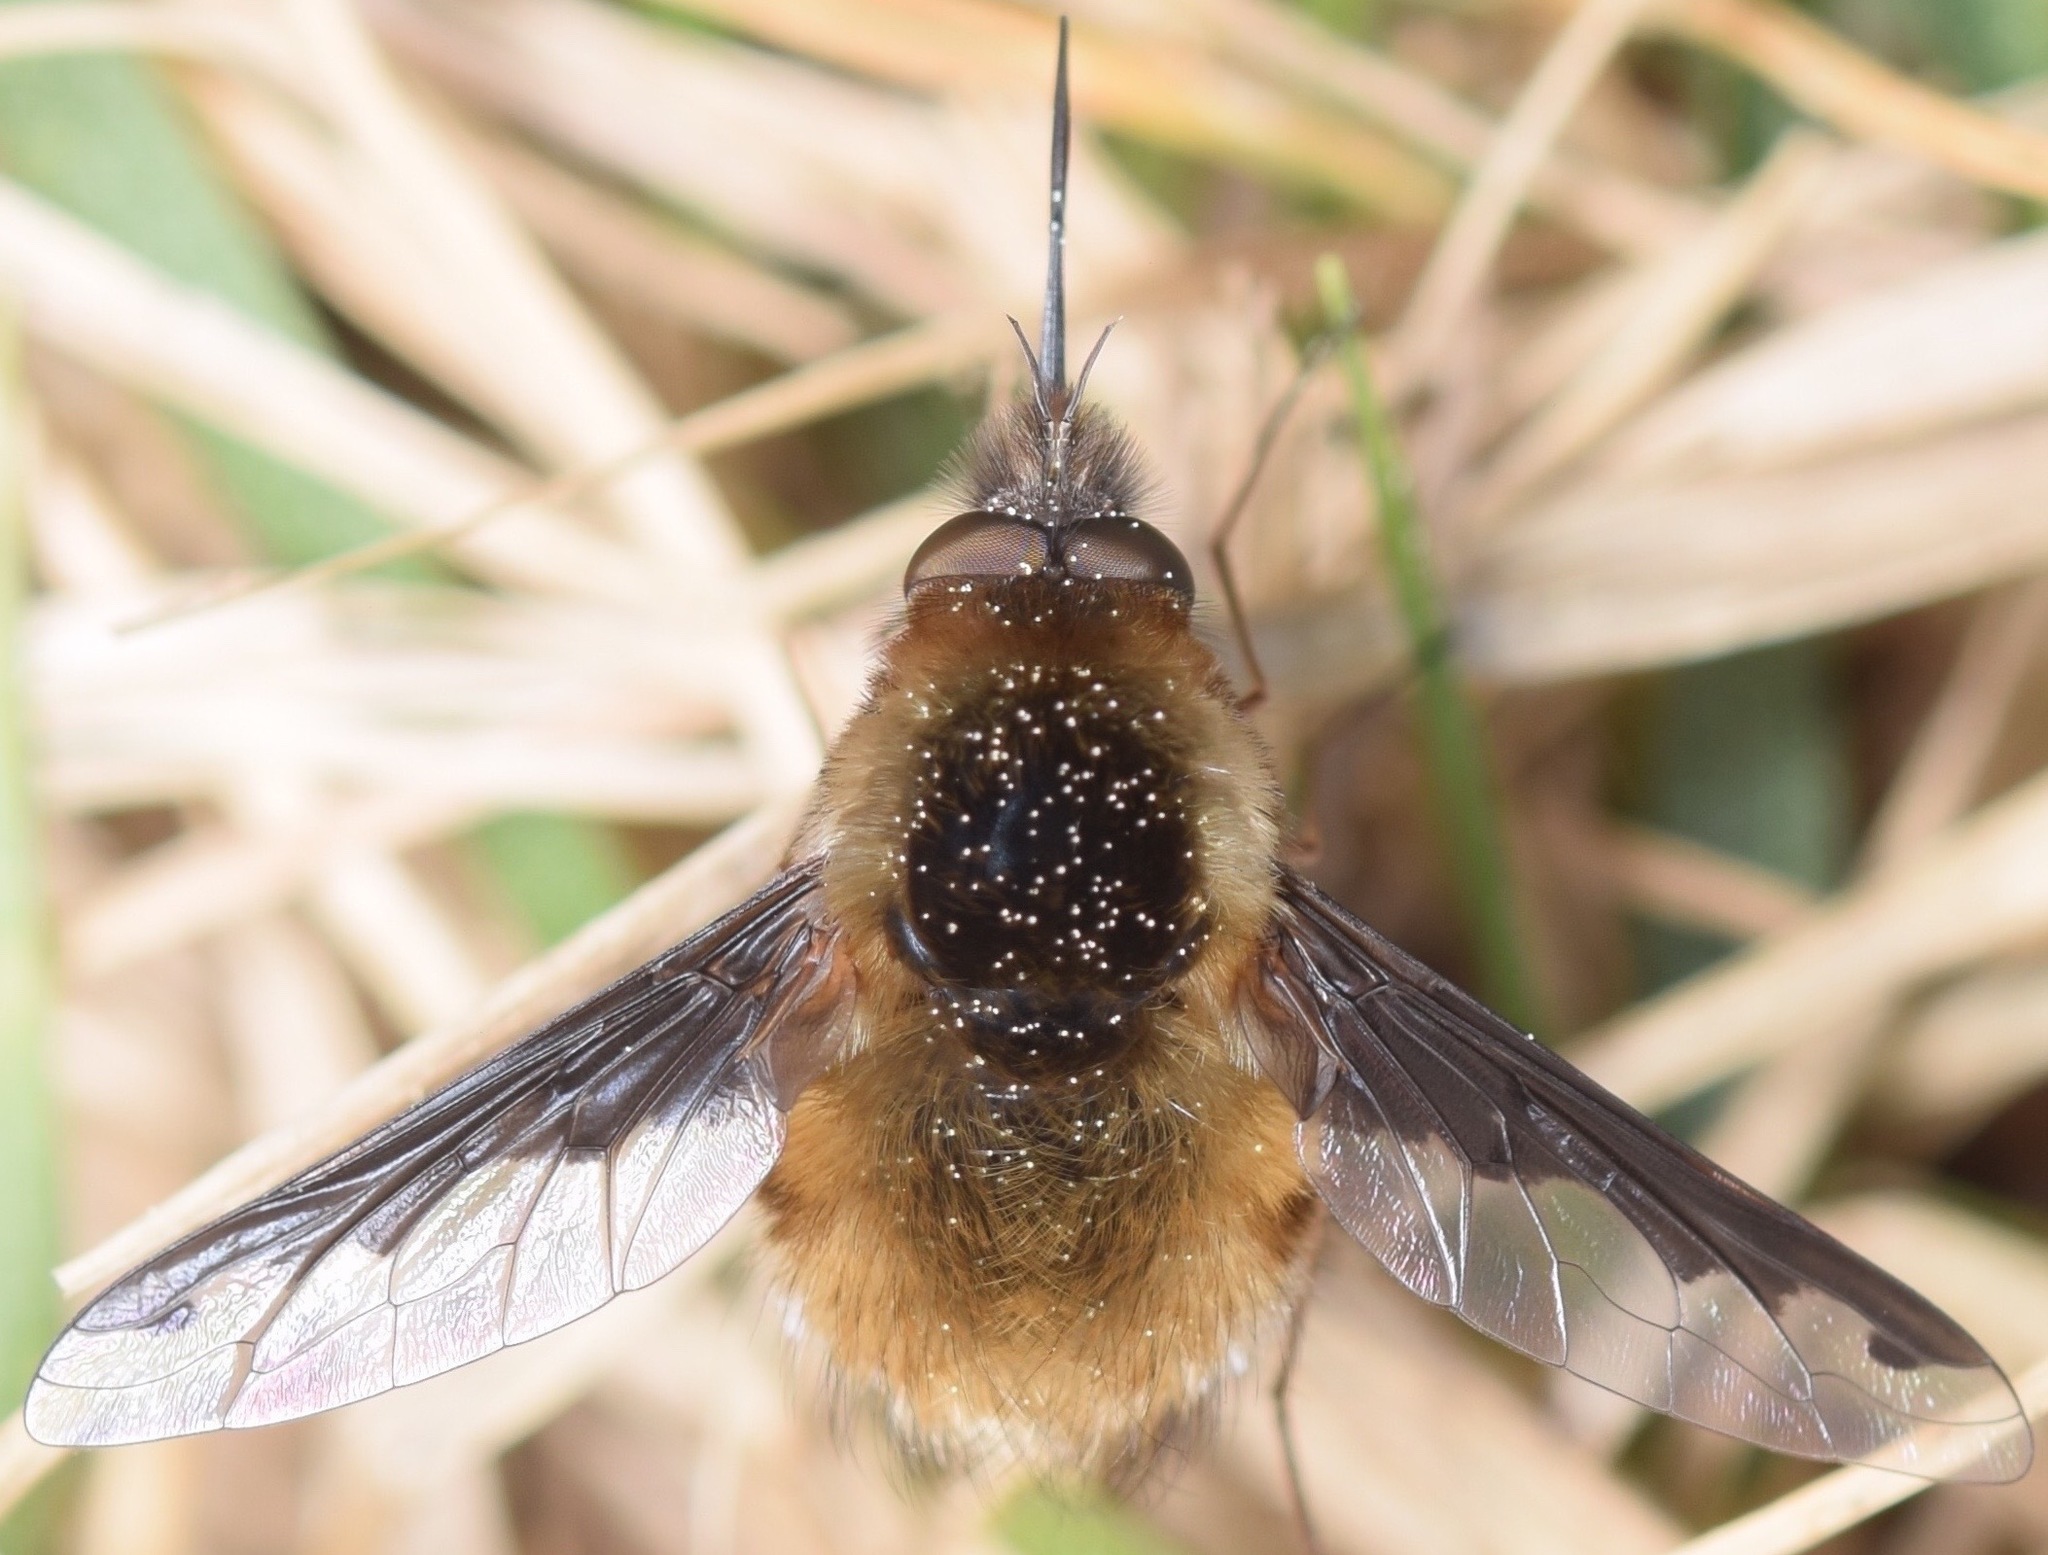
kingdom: Animalia
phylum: Arthropoda
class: Insecta
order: Diptera
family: Bombyliidae
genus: Bombylius
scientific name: Bombylius major
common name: Bee fly
